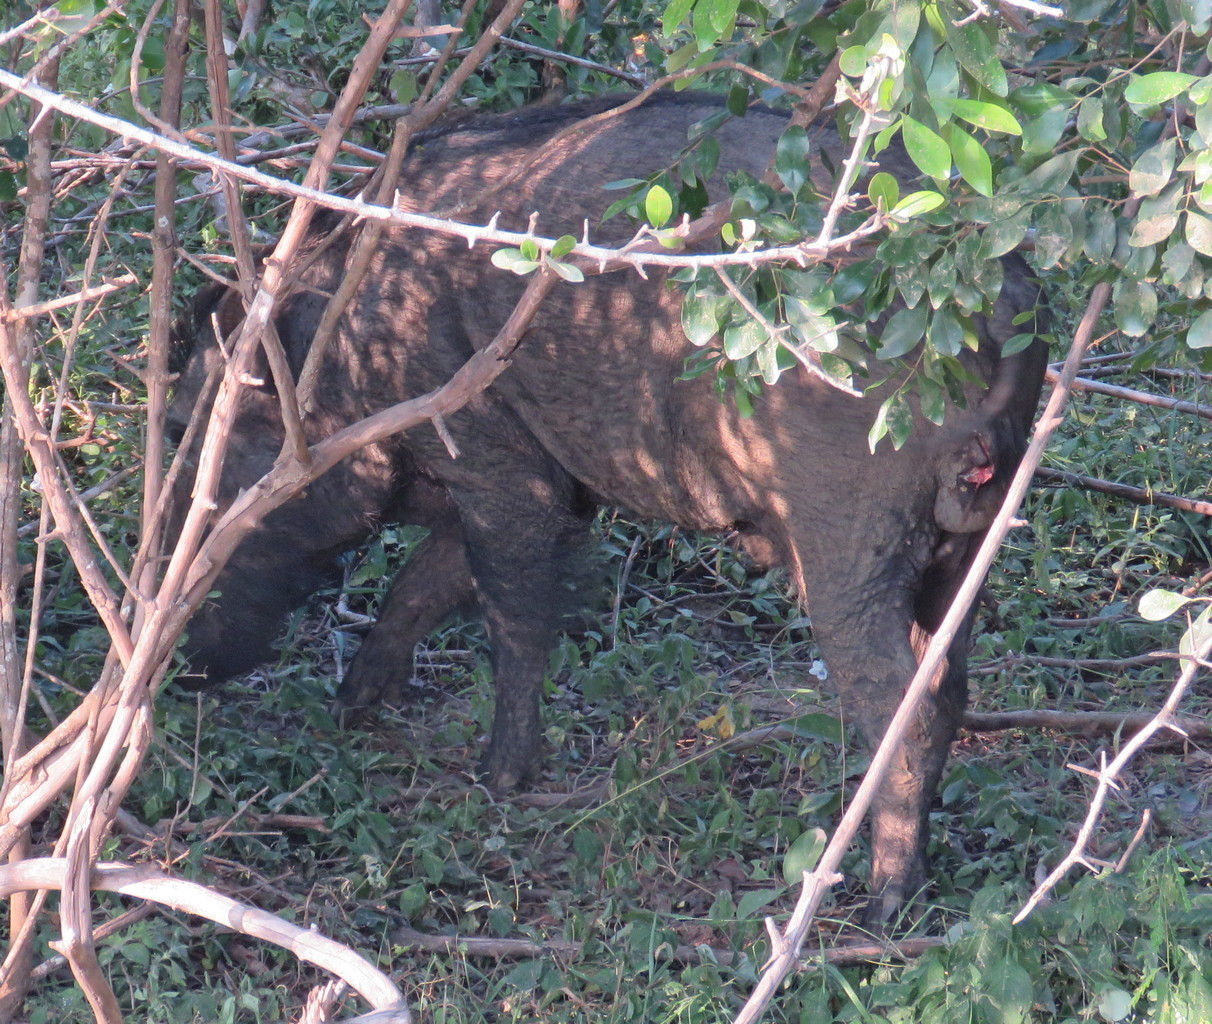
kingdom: Animalia
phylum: Chordata
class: Mammalia
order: Artiodactyla
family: Suidae
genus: Sus
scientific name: Sus scrofa
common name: Wild boar
